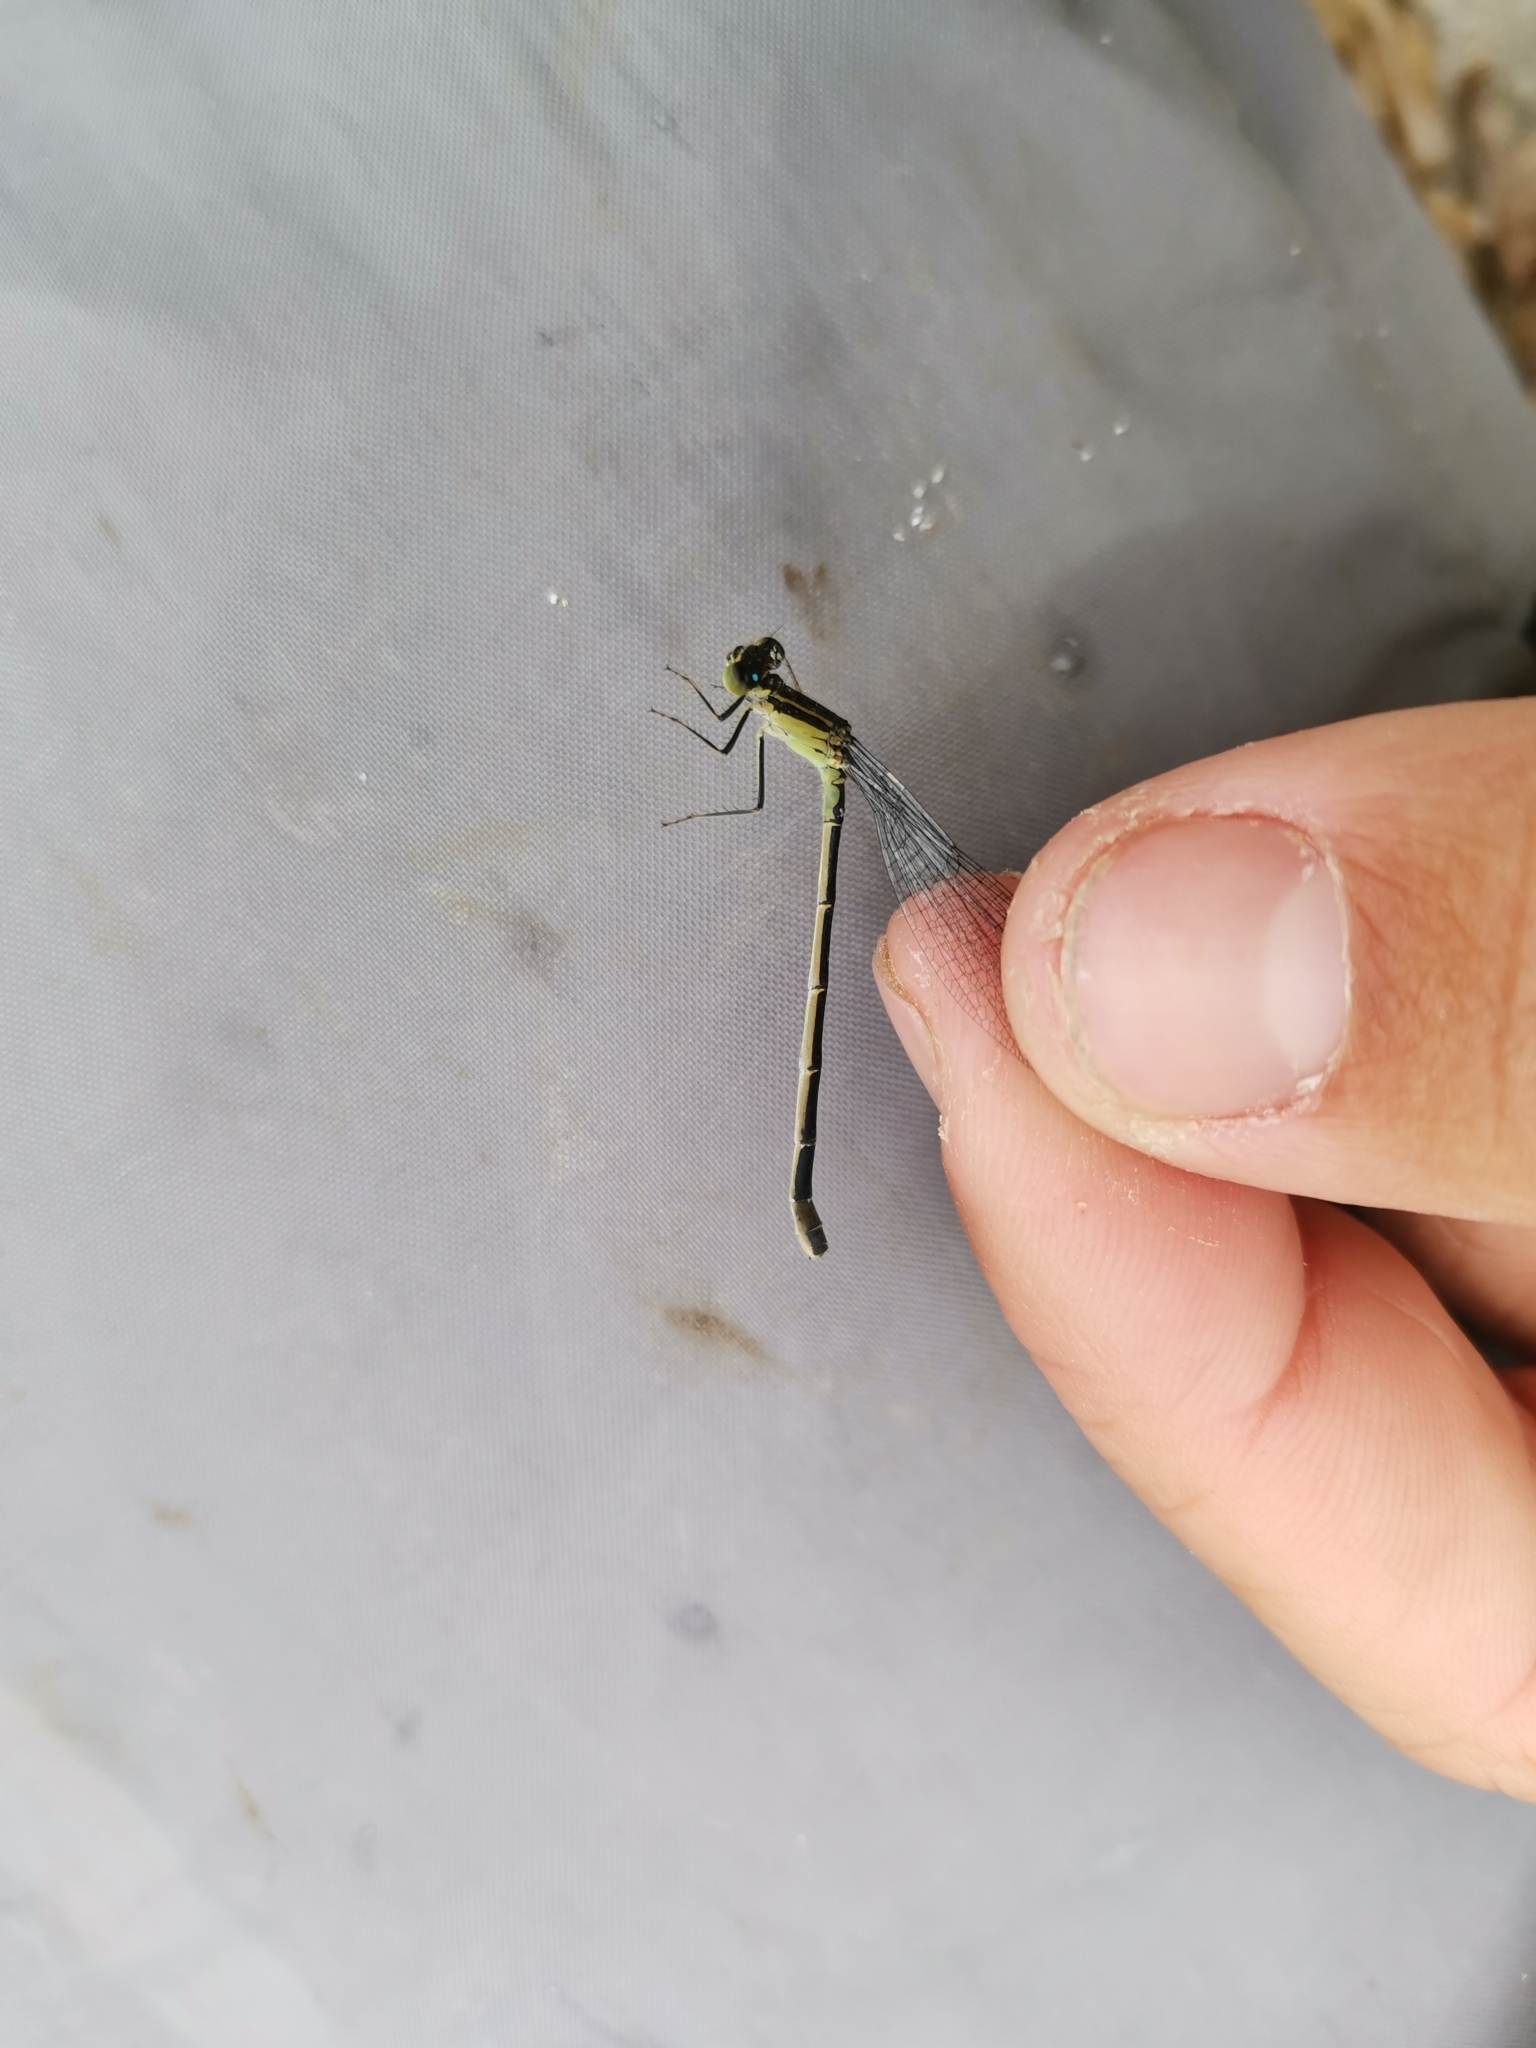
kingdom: Animalia
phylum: Arthropoda
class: Insecta
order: Odonata
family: Coenagrionidae
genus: Ischnura
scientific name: Ischnura genei
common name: Island bluetail
